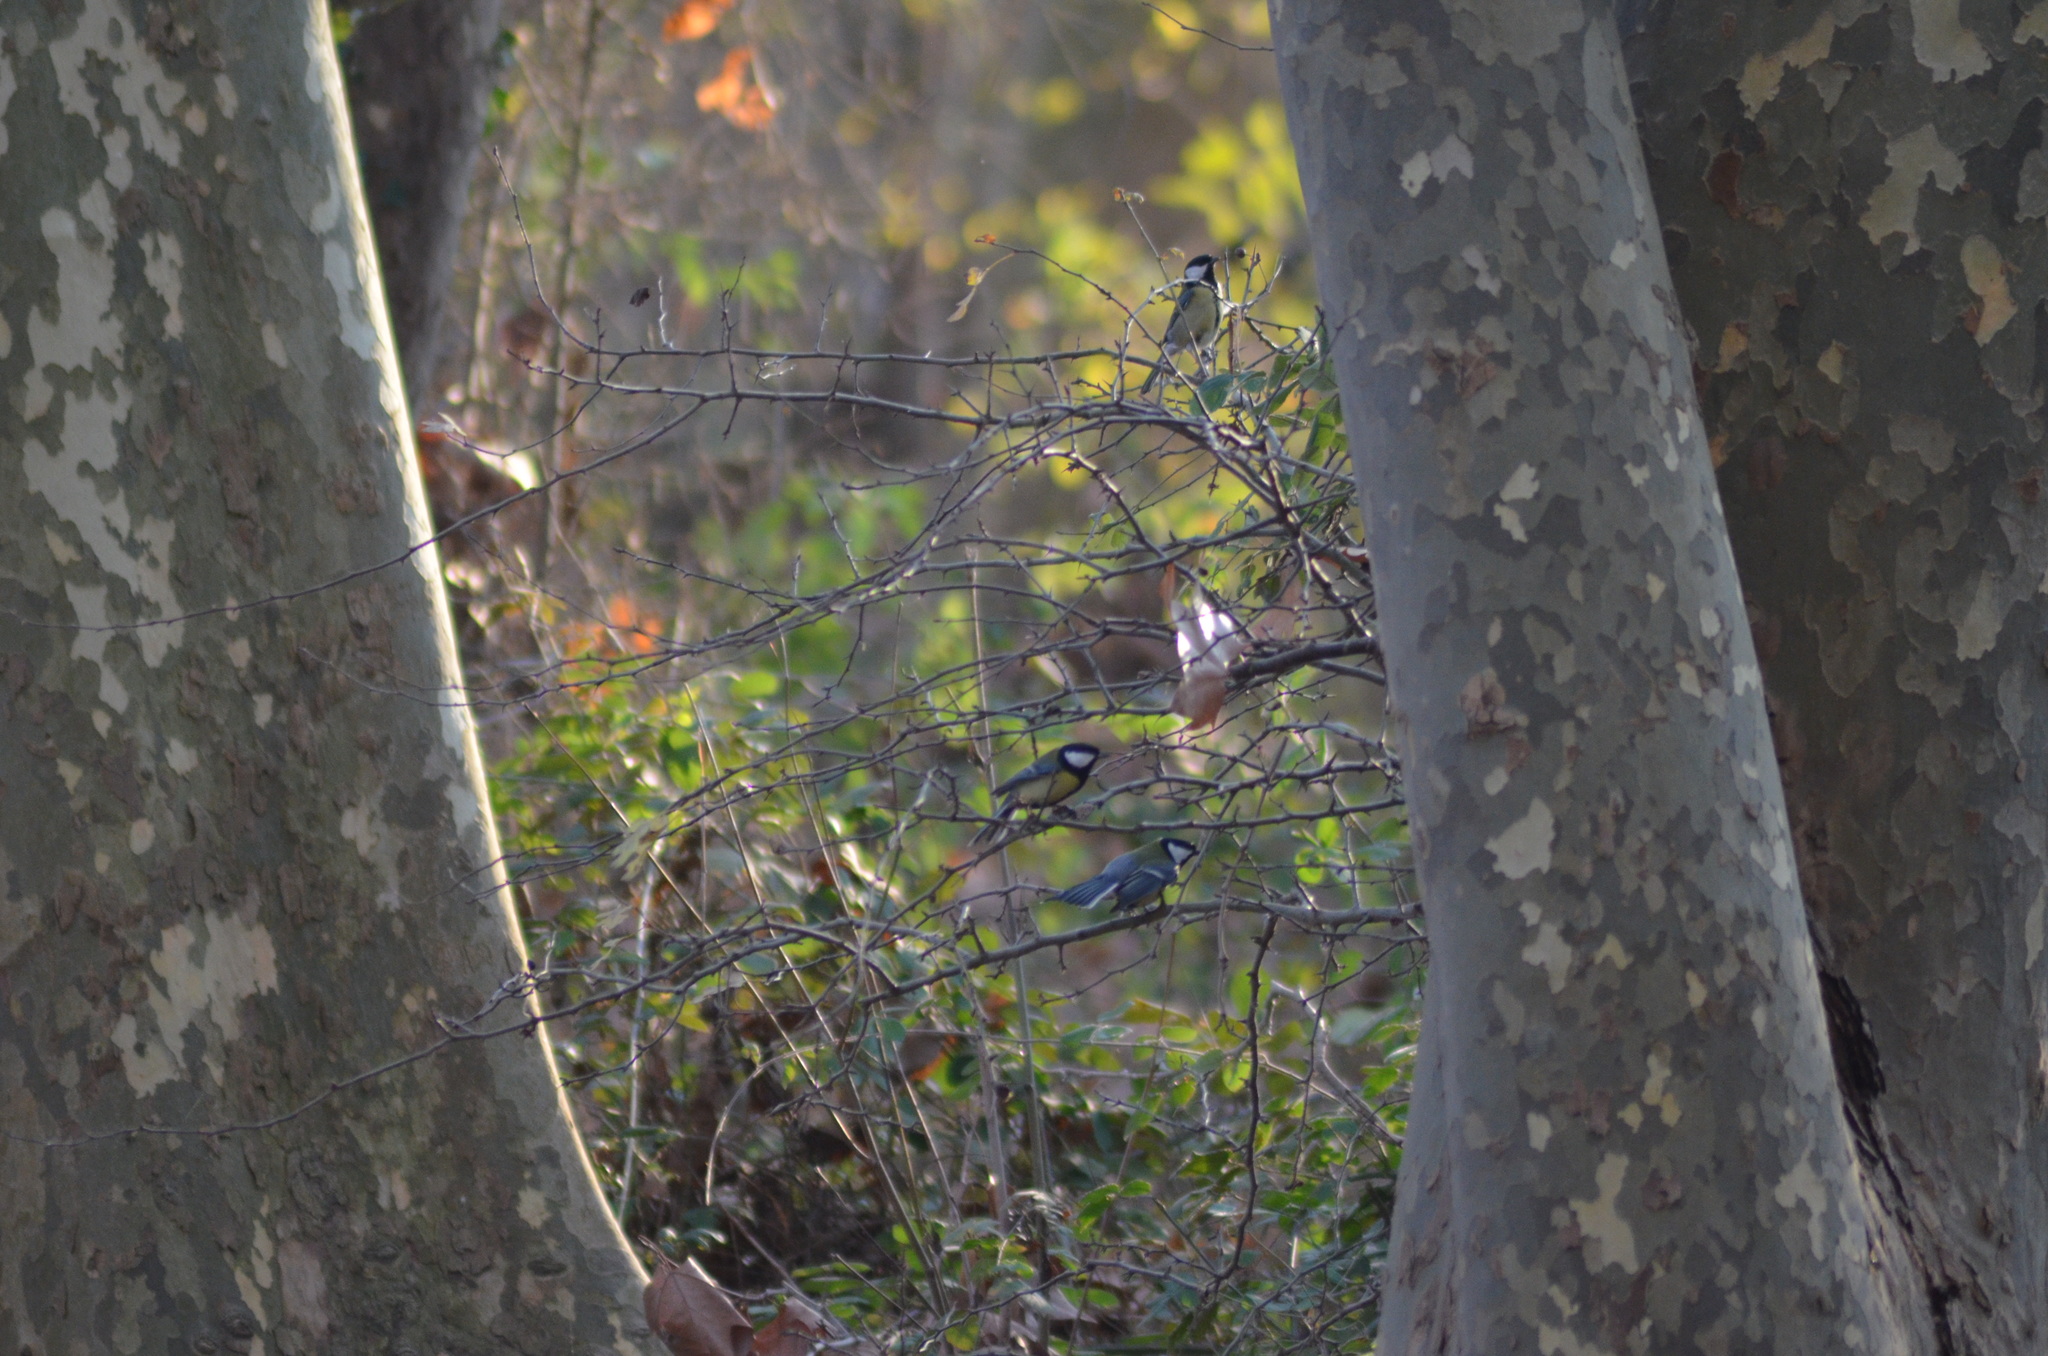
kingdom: Animalia
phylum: Chordata
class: Aves
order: Passeriformes
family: Paridae
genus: Parus
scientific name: Parus major
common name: Great tit
